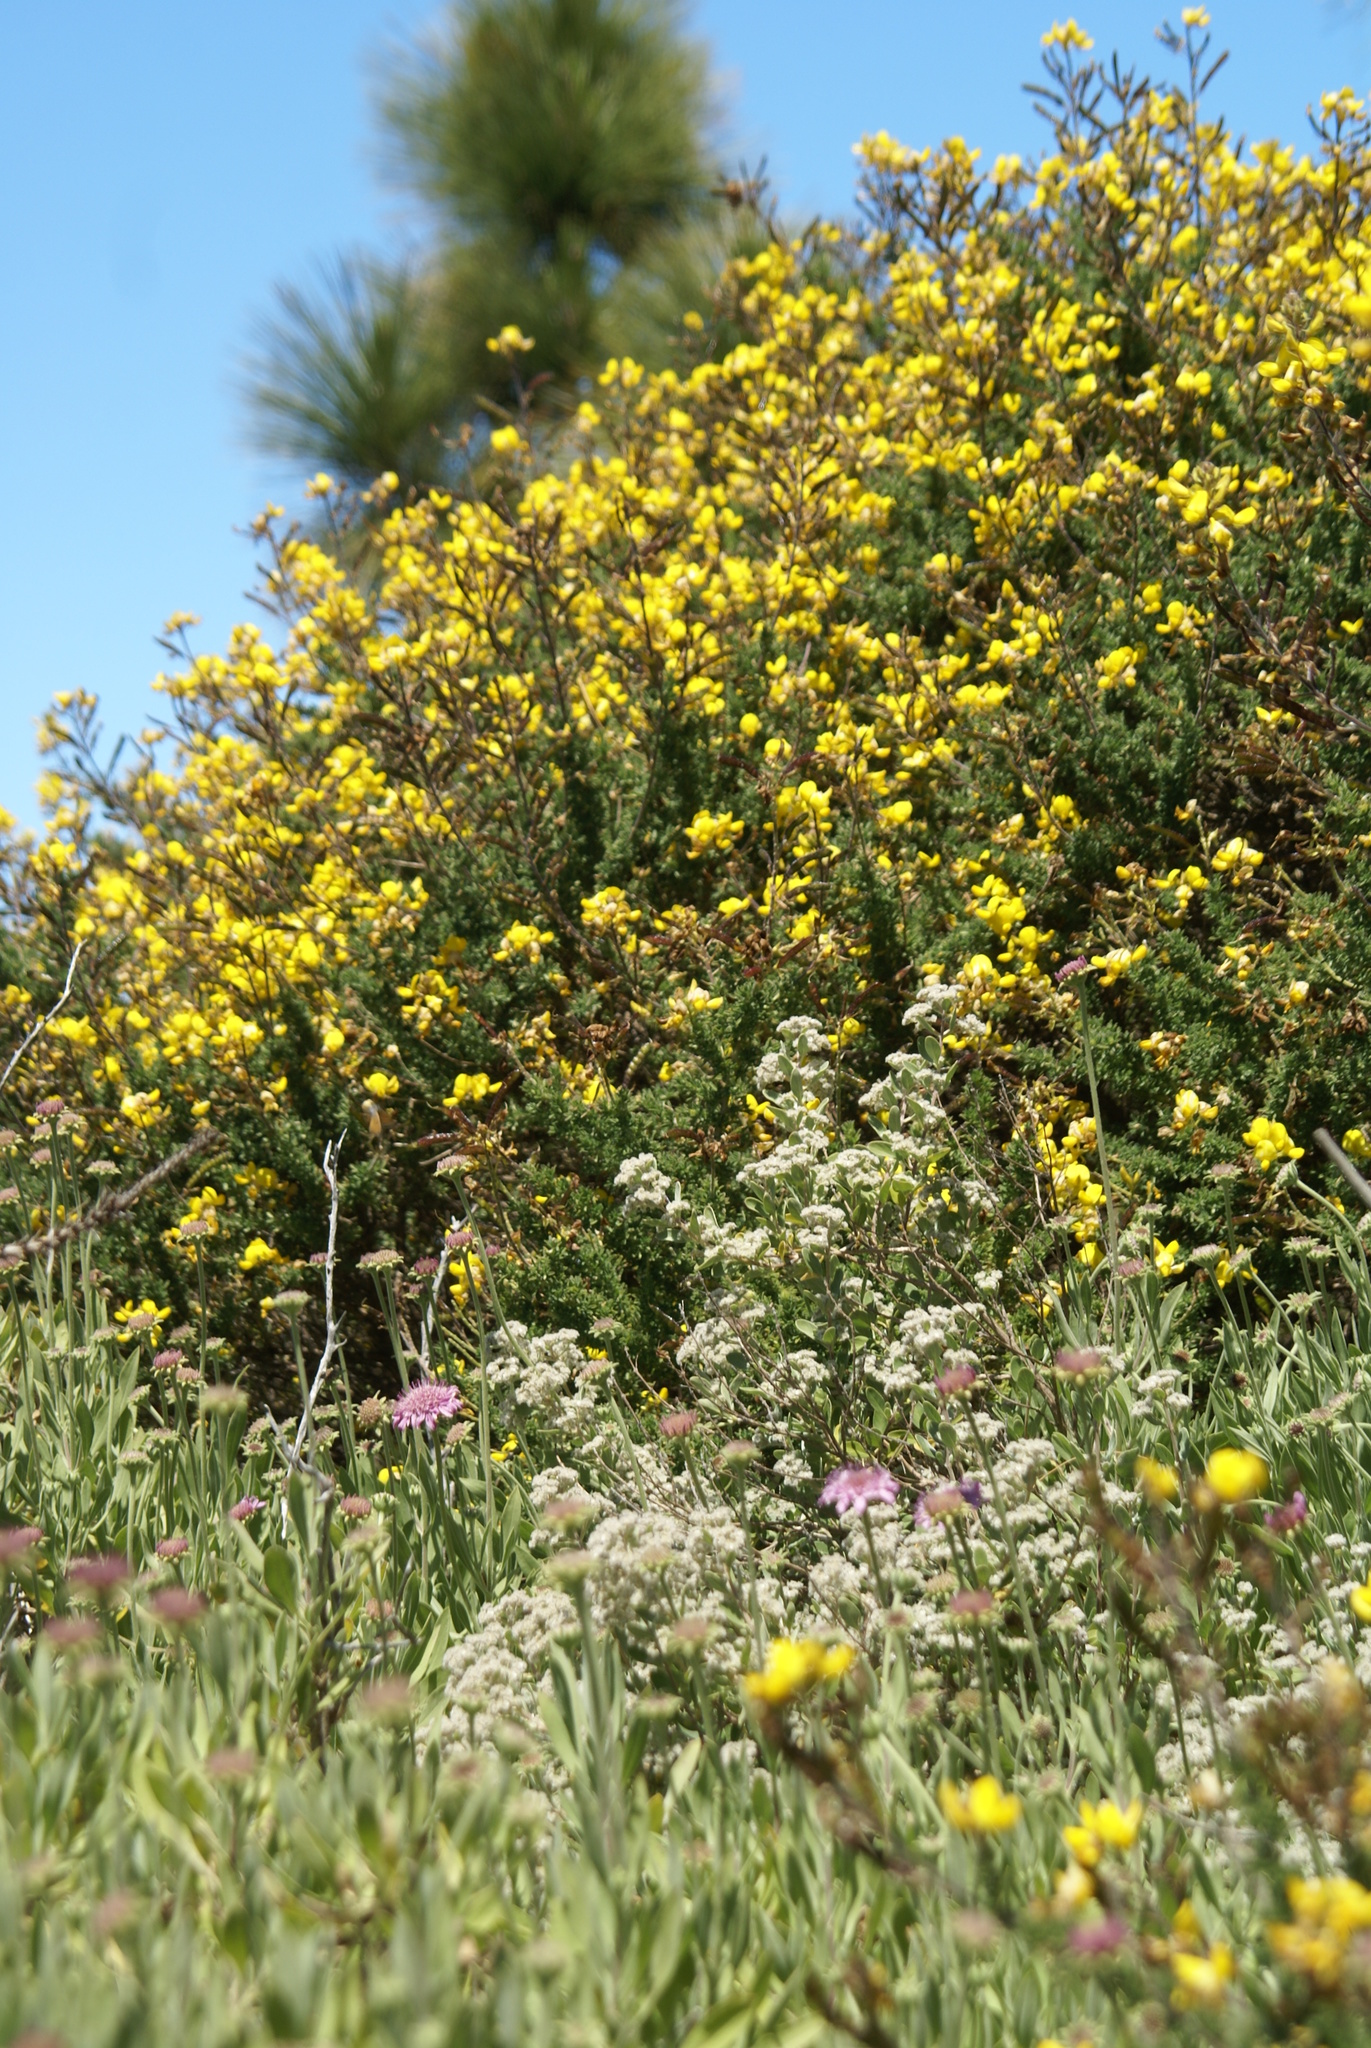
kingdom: Plantae
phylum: Tracheophyta
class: Magnoliopsida
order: Fabales
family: Fabaceae
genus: Adenocarpus
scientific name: Adenocarpus foliolosus
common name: Canary island flatpod
